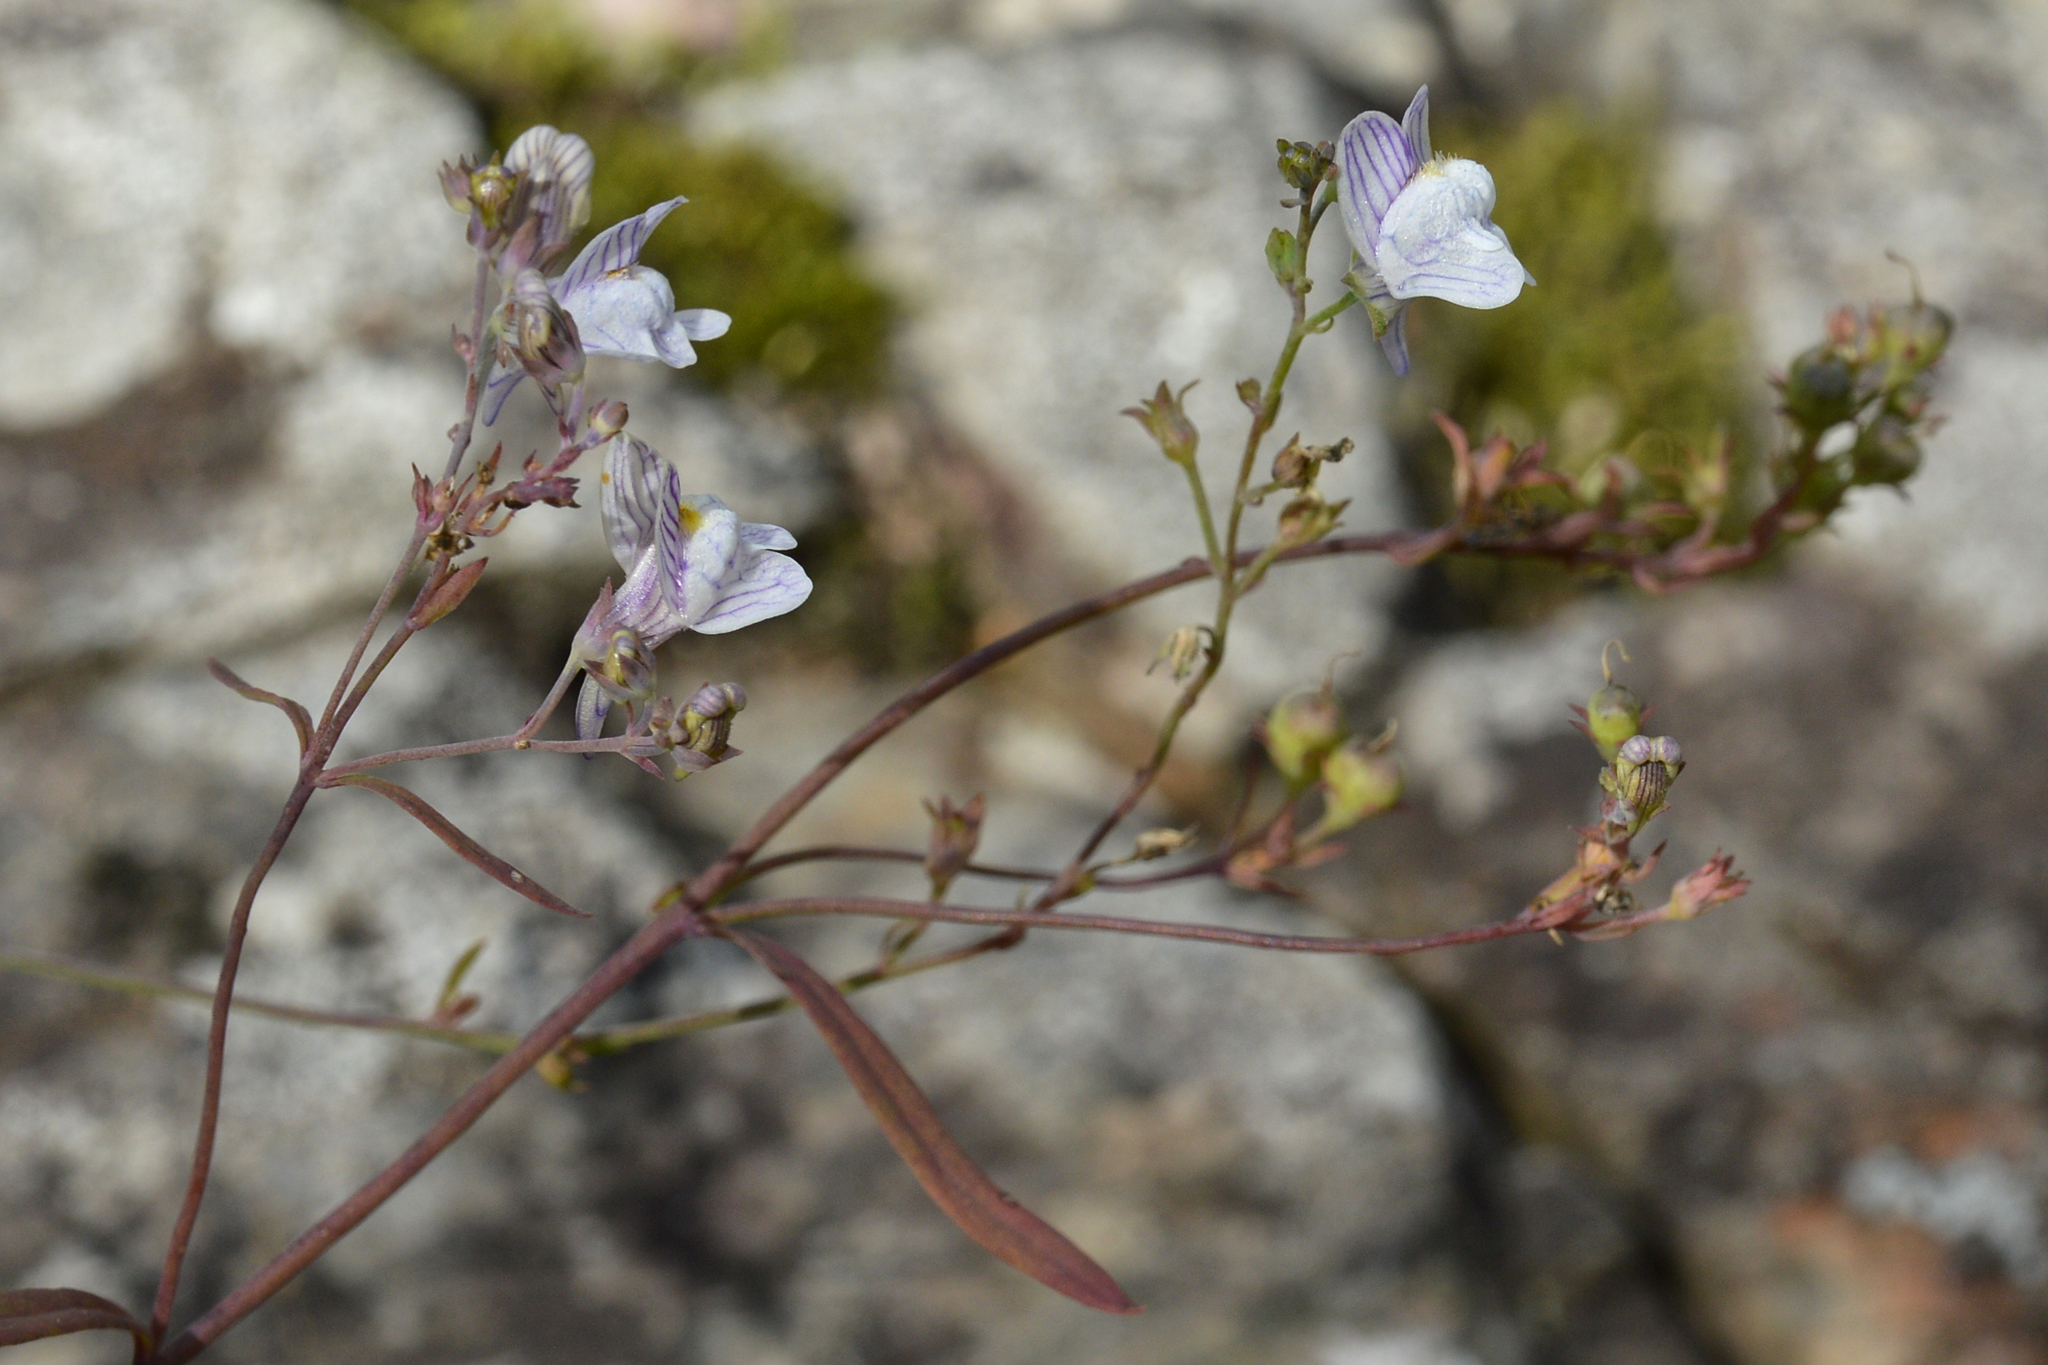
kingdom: Plantae
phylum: Tracheophyta
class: Magnoliopsida
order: Lamiales
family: Plantaginaceae
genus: Linaria
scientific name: Linaria repens
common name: Pale toadflax
